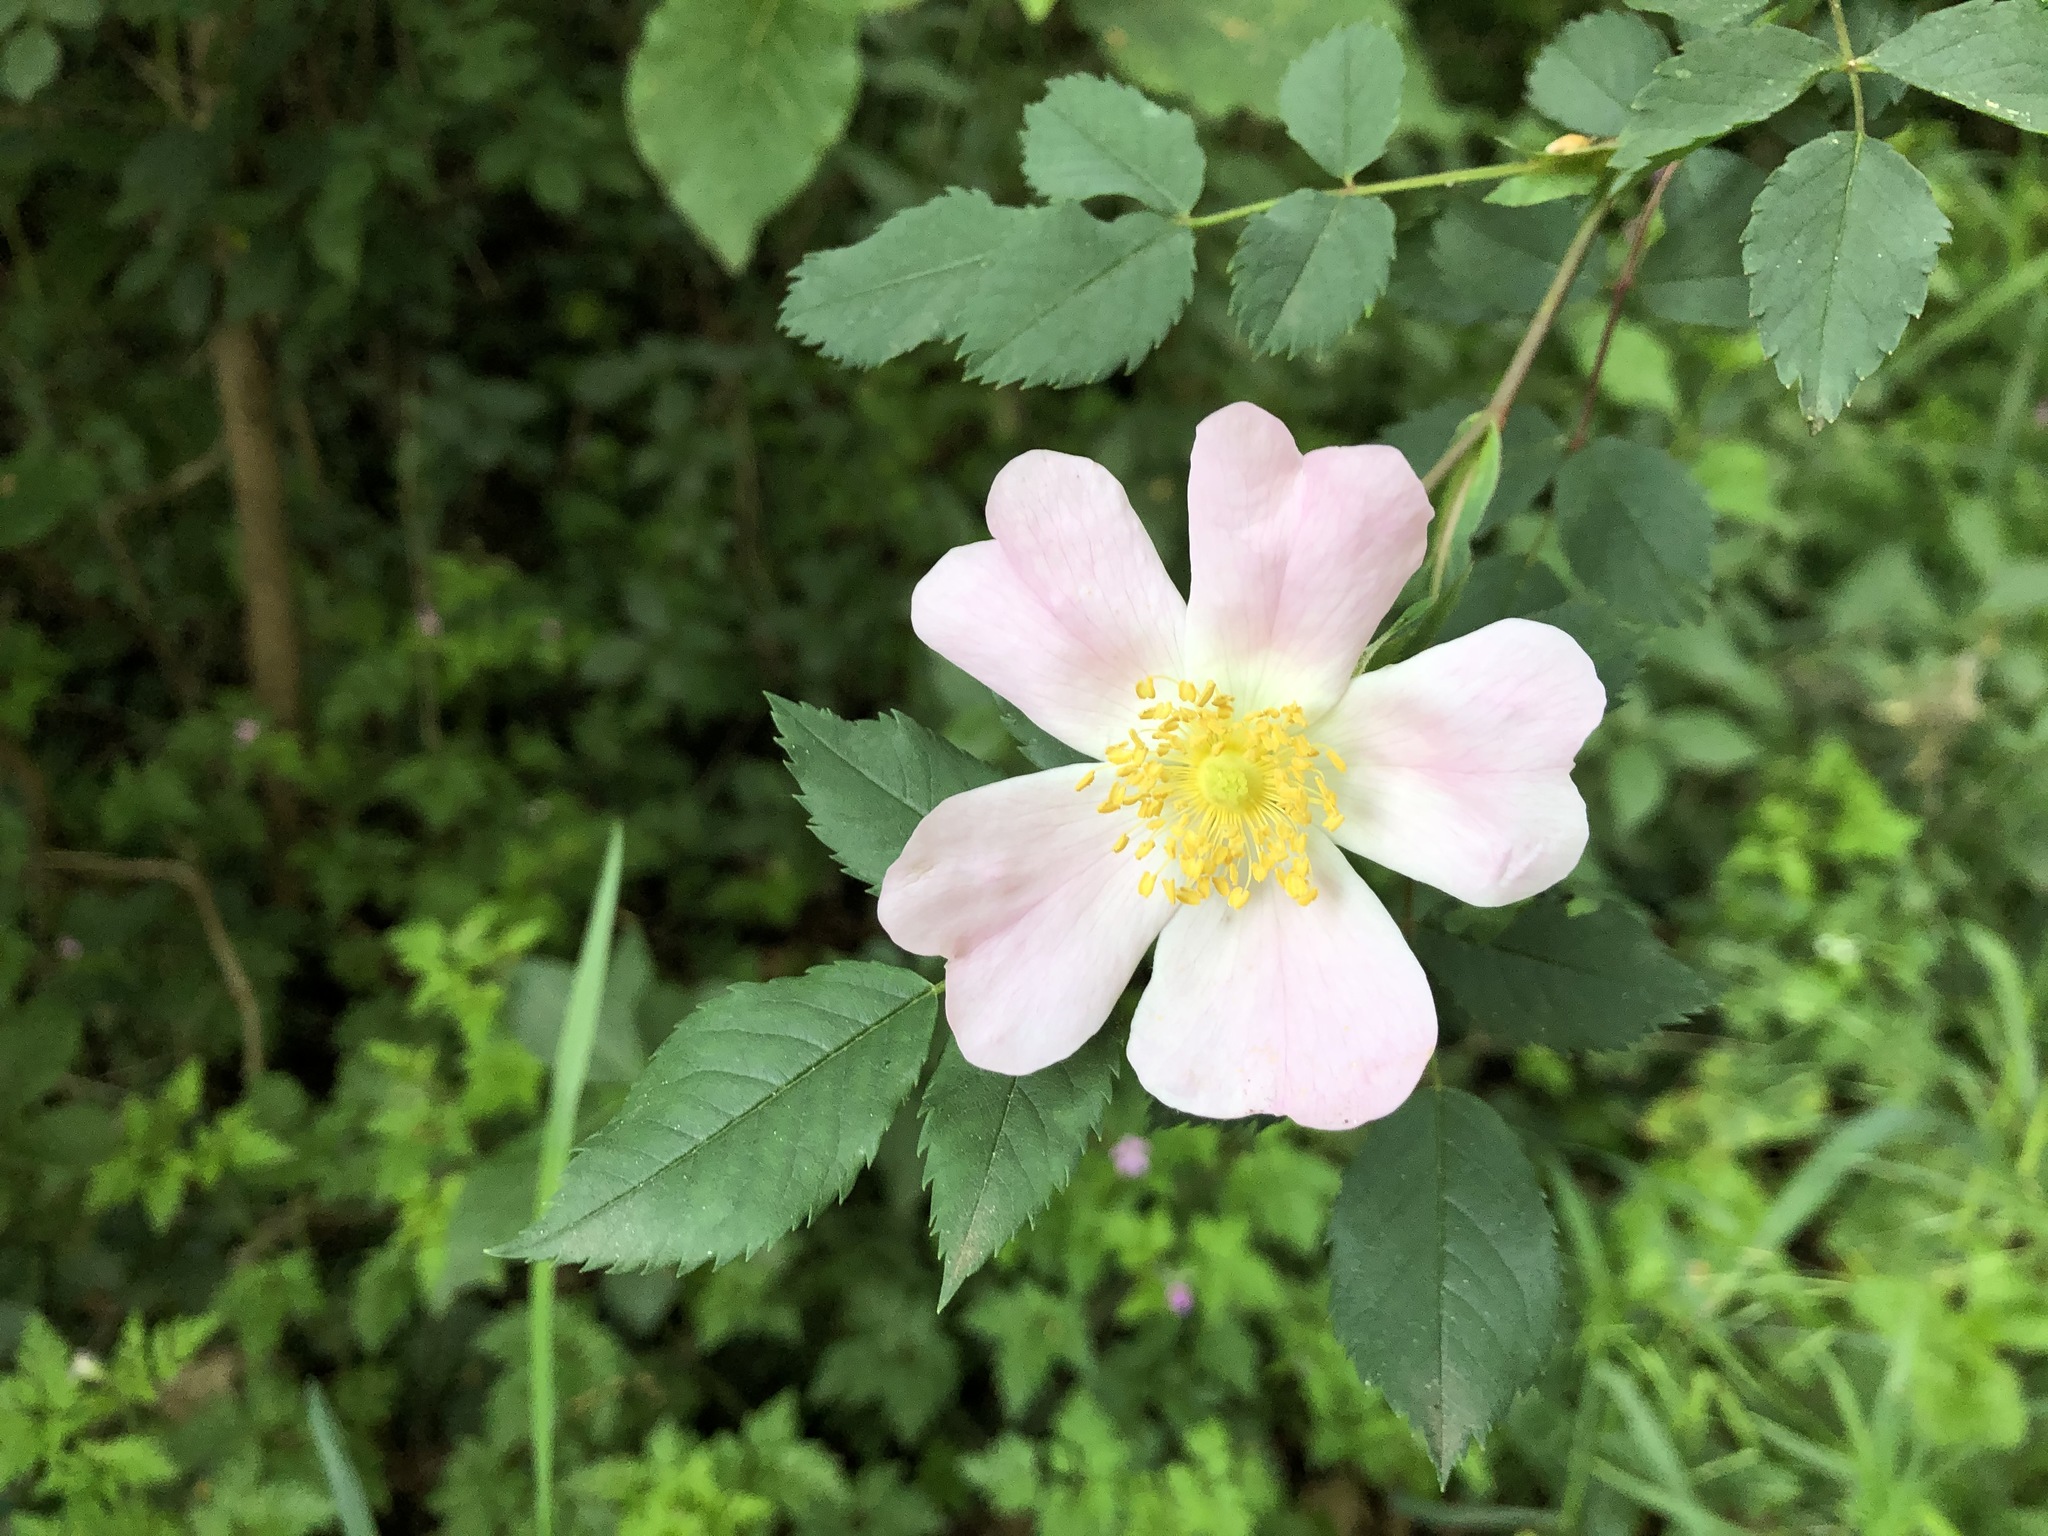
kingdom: Plantae
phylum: Tracheophyta
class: Magnoliopsida
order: Rosales
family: Rosaceae
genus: Rosa
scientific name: Rosa canina
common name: Dog rose
